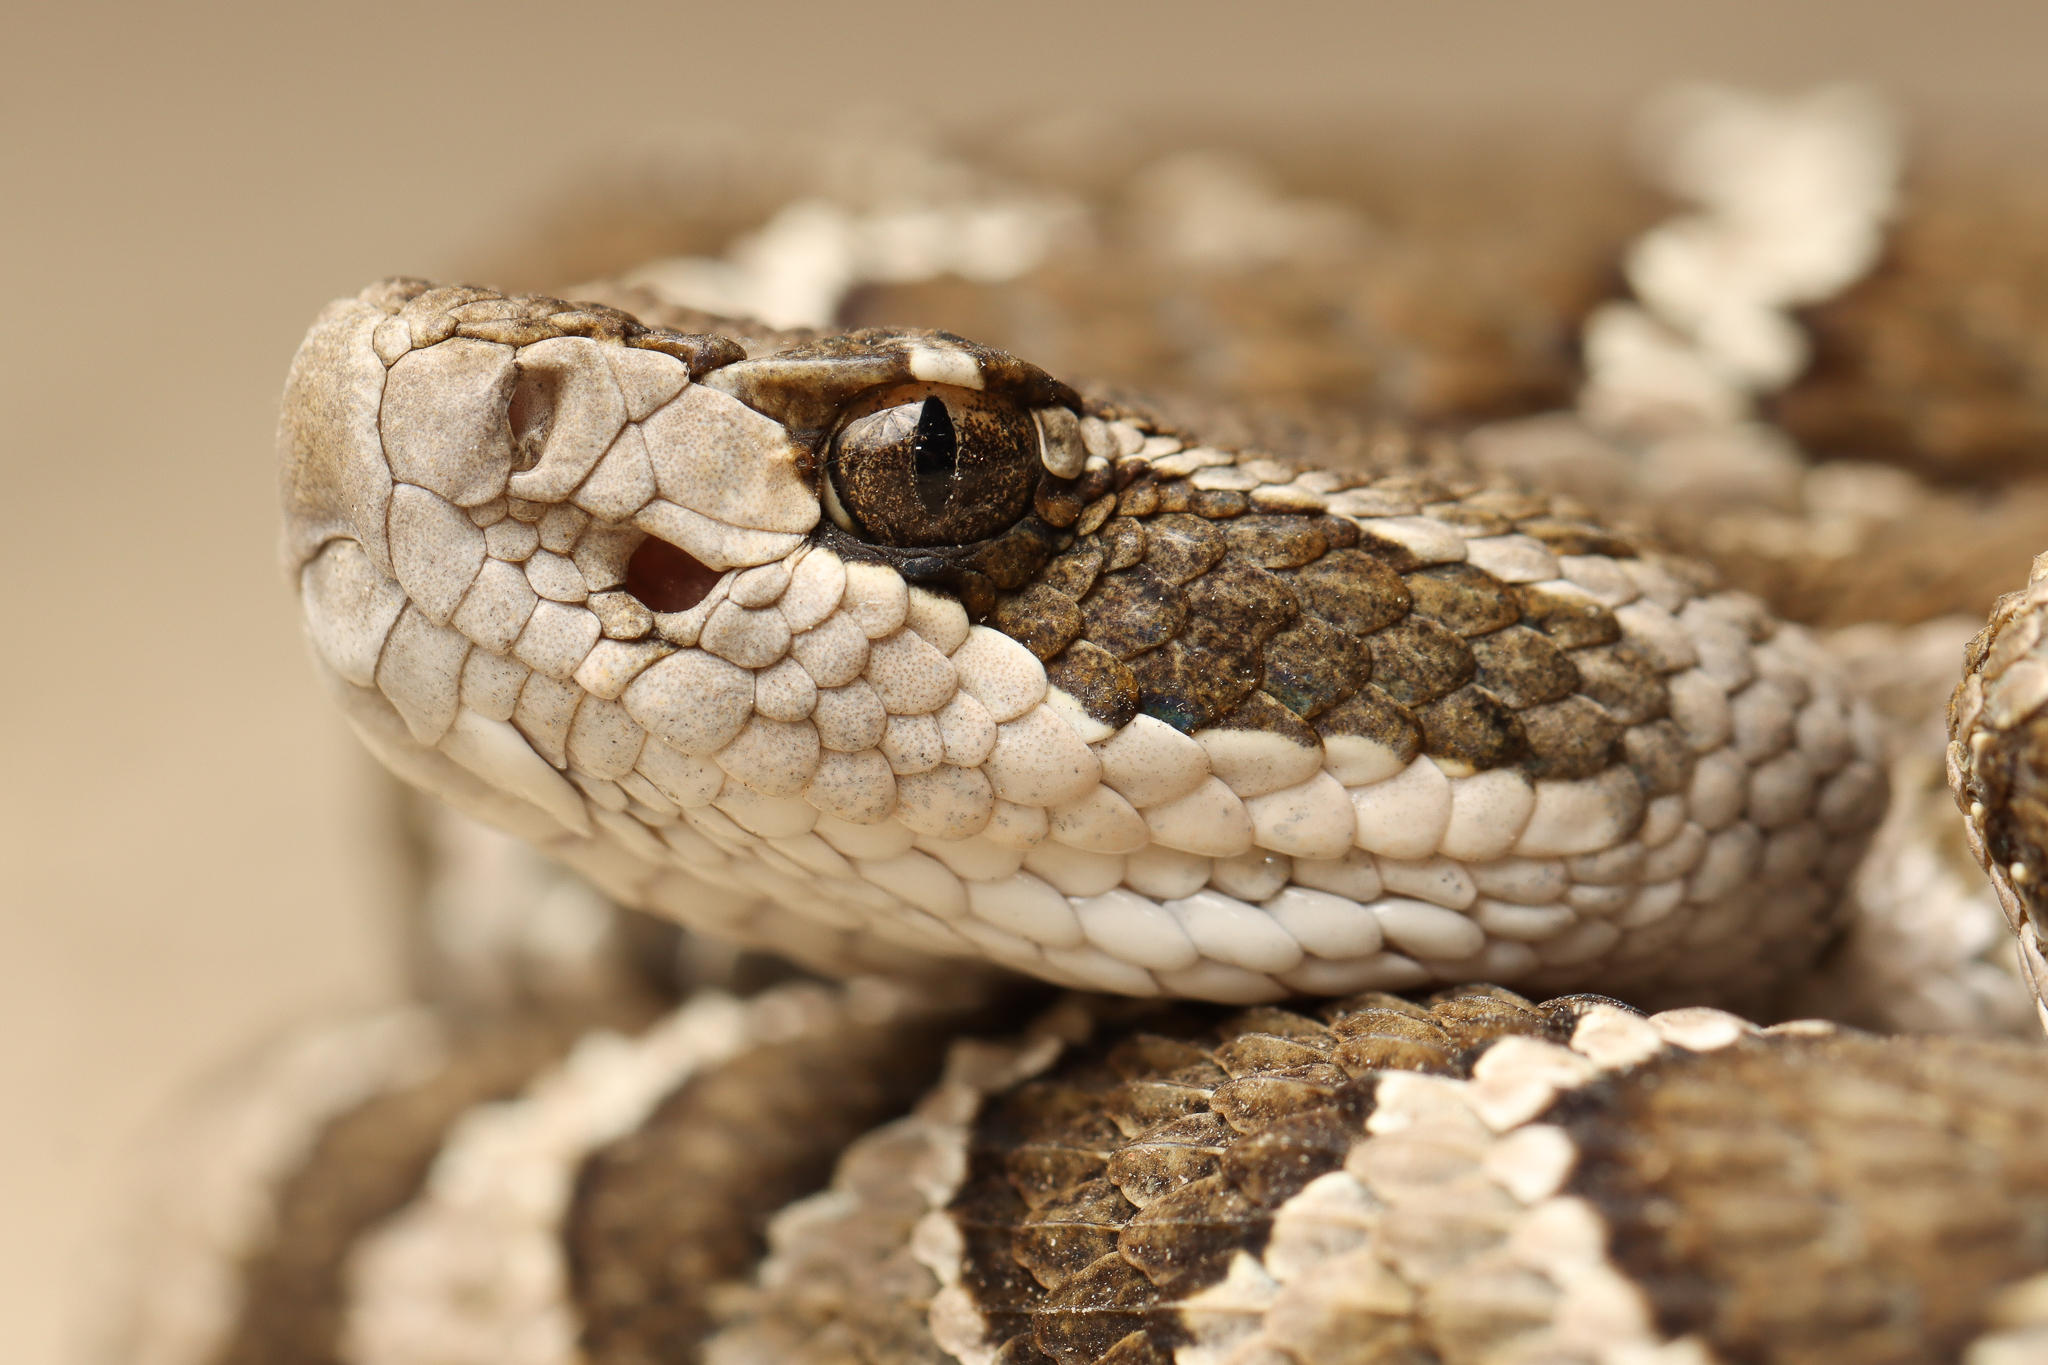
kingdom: Animalia
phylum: Chordata
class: Squamata
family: Viperidae
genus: Crotalus
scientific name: Crotalus oreganus
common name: Abyssus
